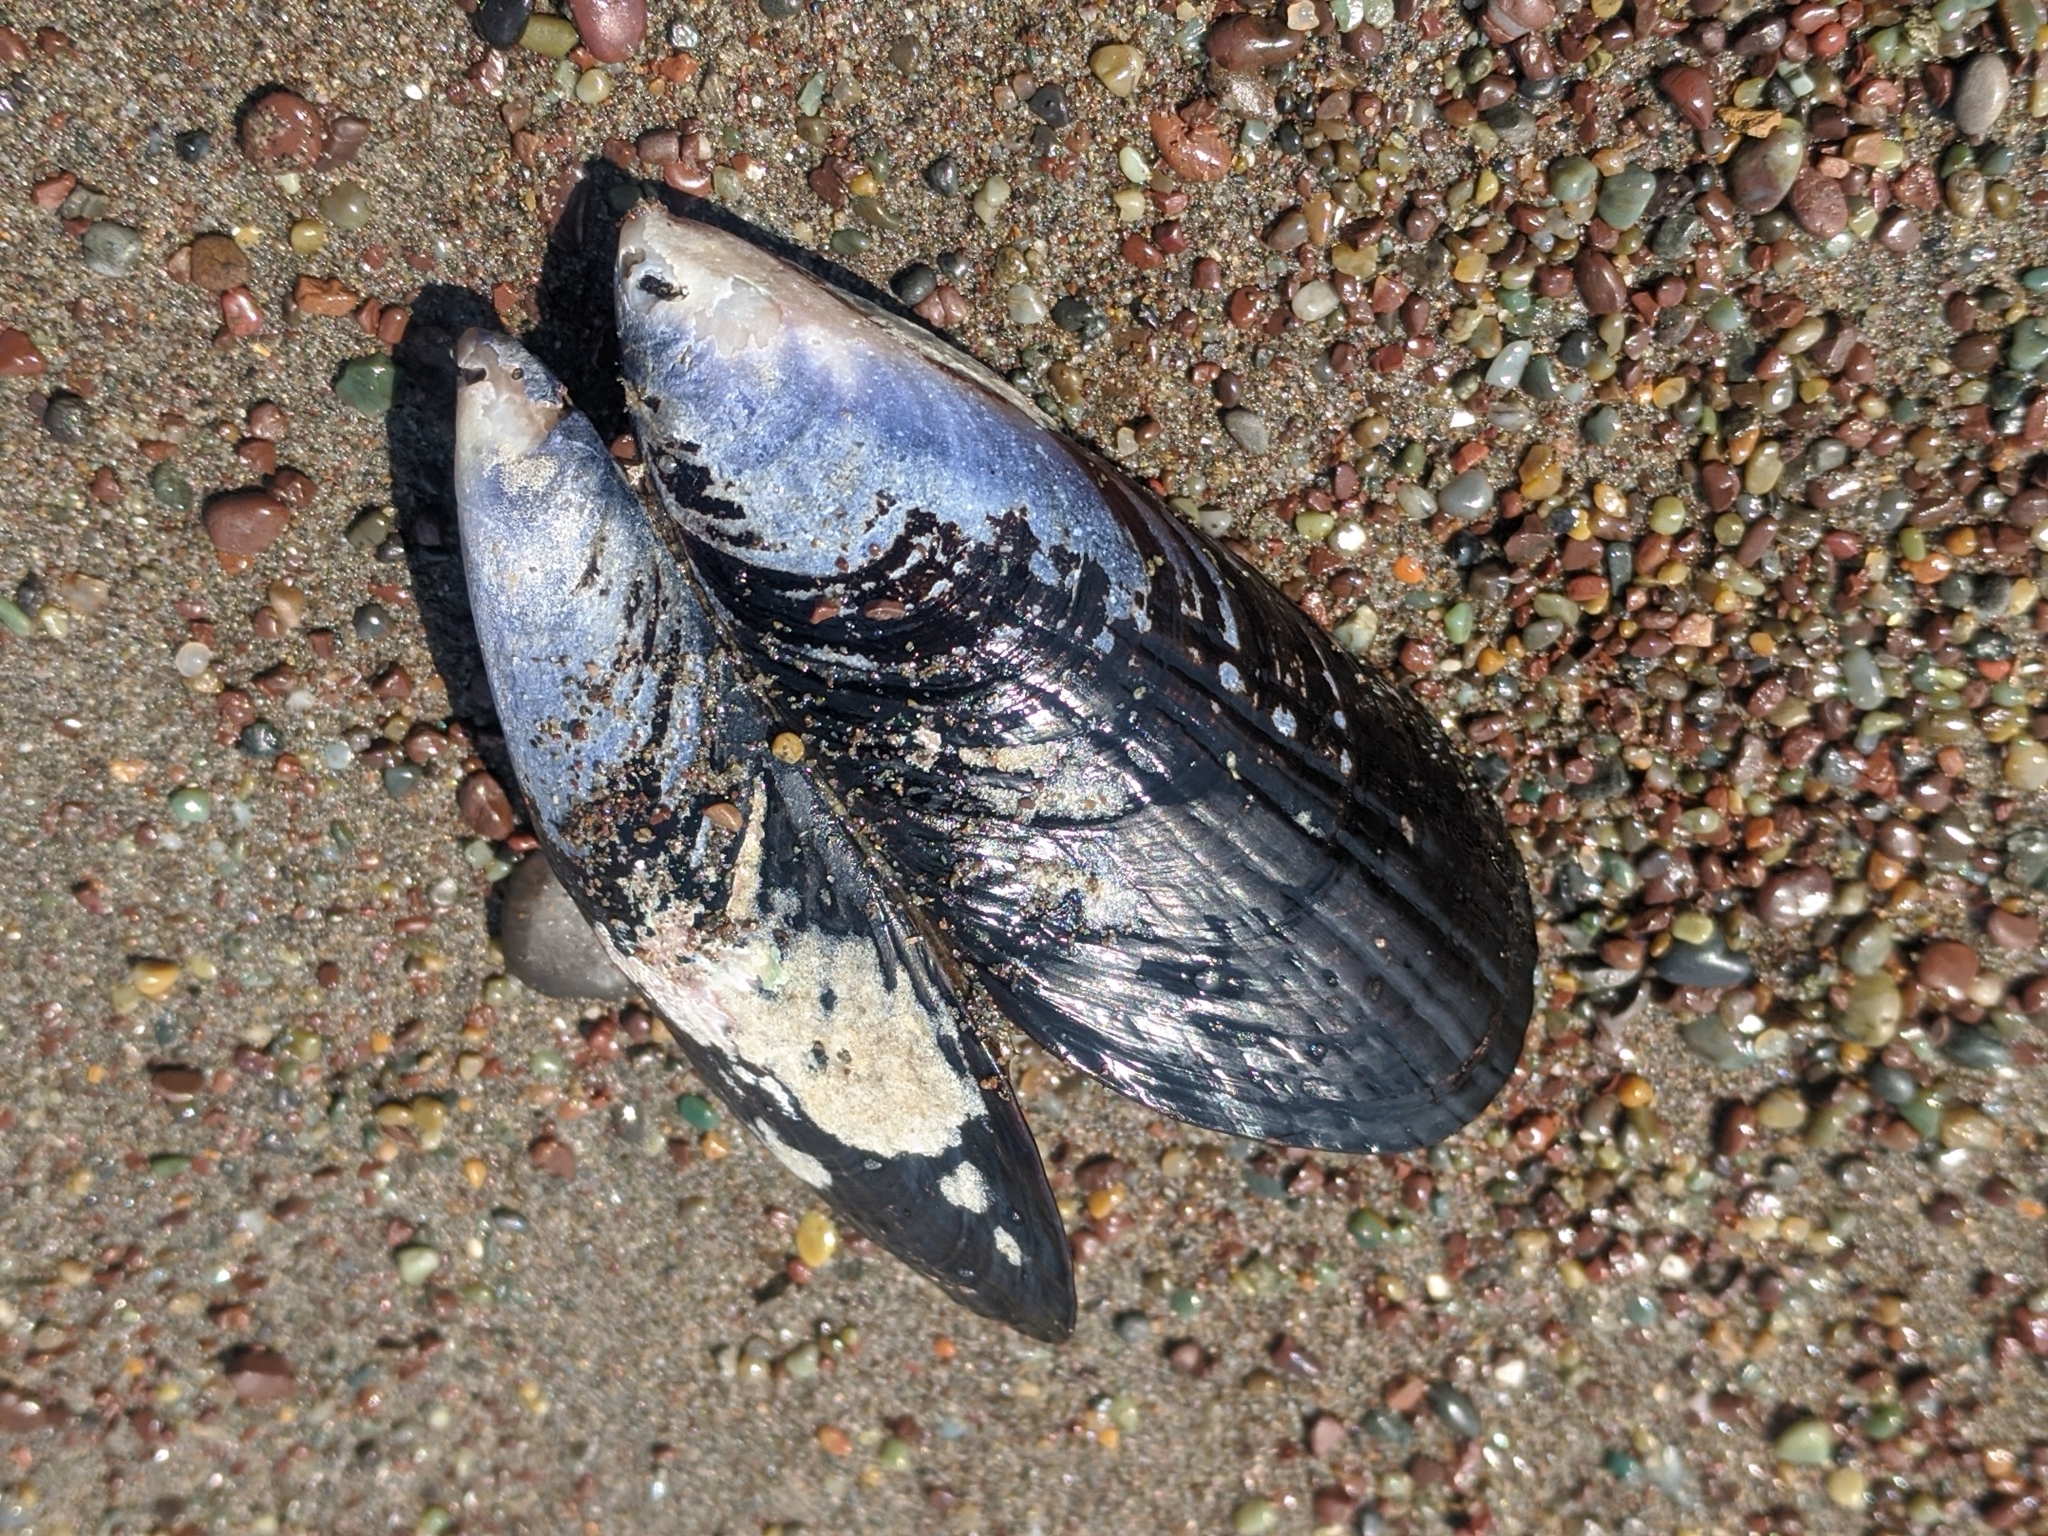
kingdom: Animalia
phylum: Mollusca
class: Bivalvia
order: Mytilida
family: Mytilidae
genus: Mytilus
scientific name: Mytilus californianus
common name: California mussel
